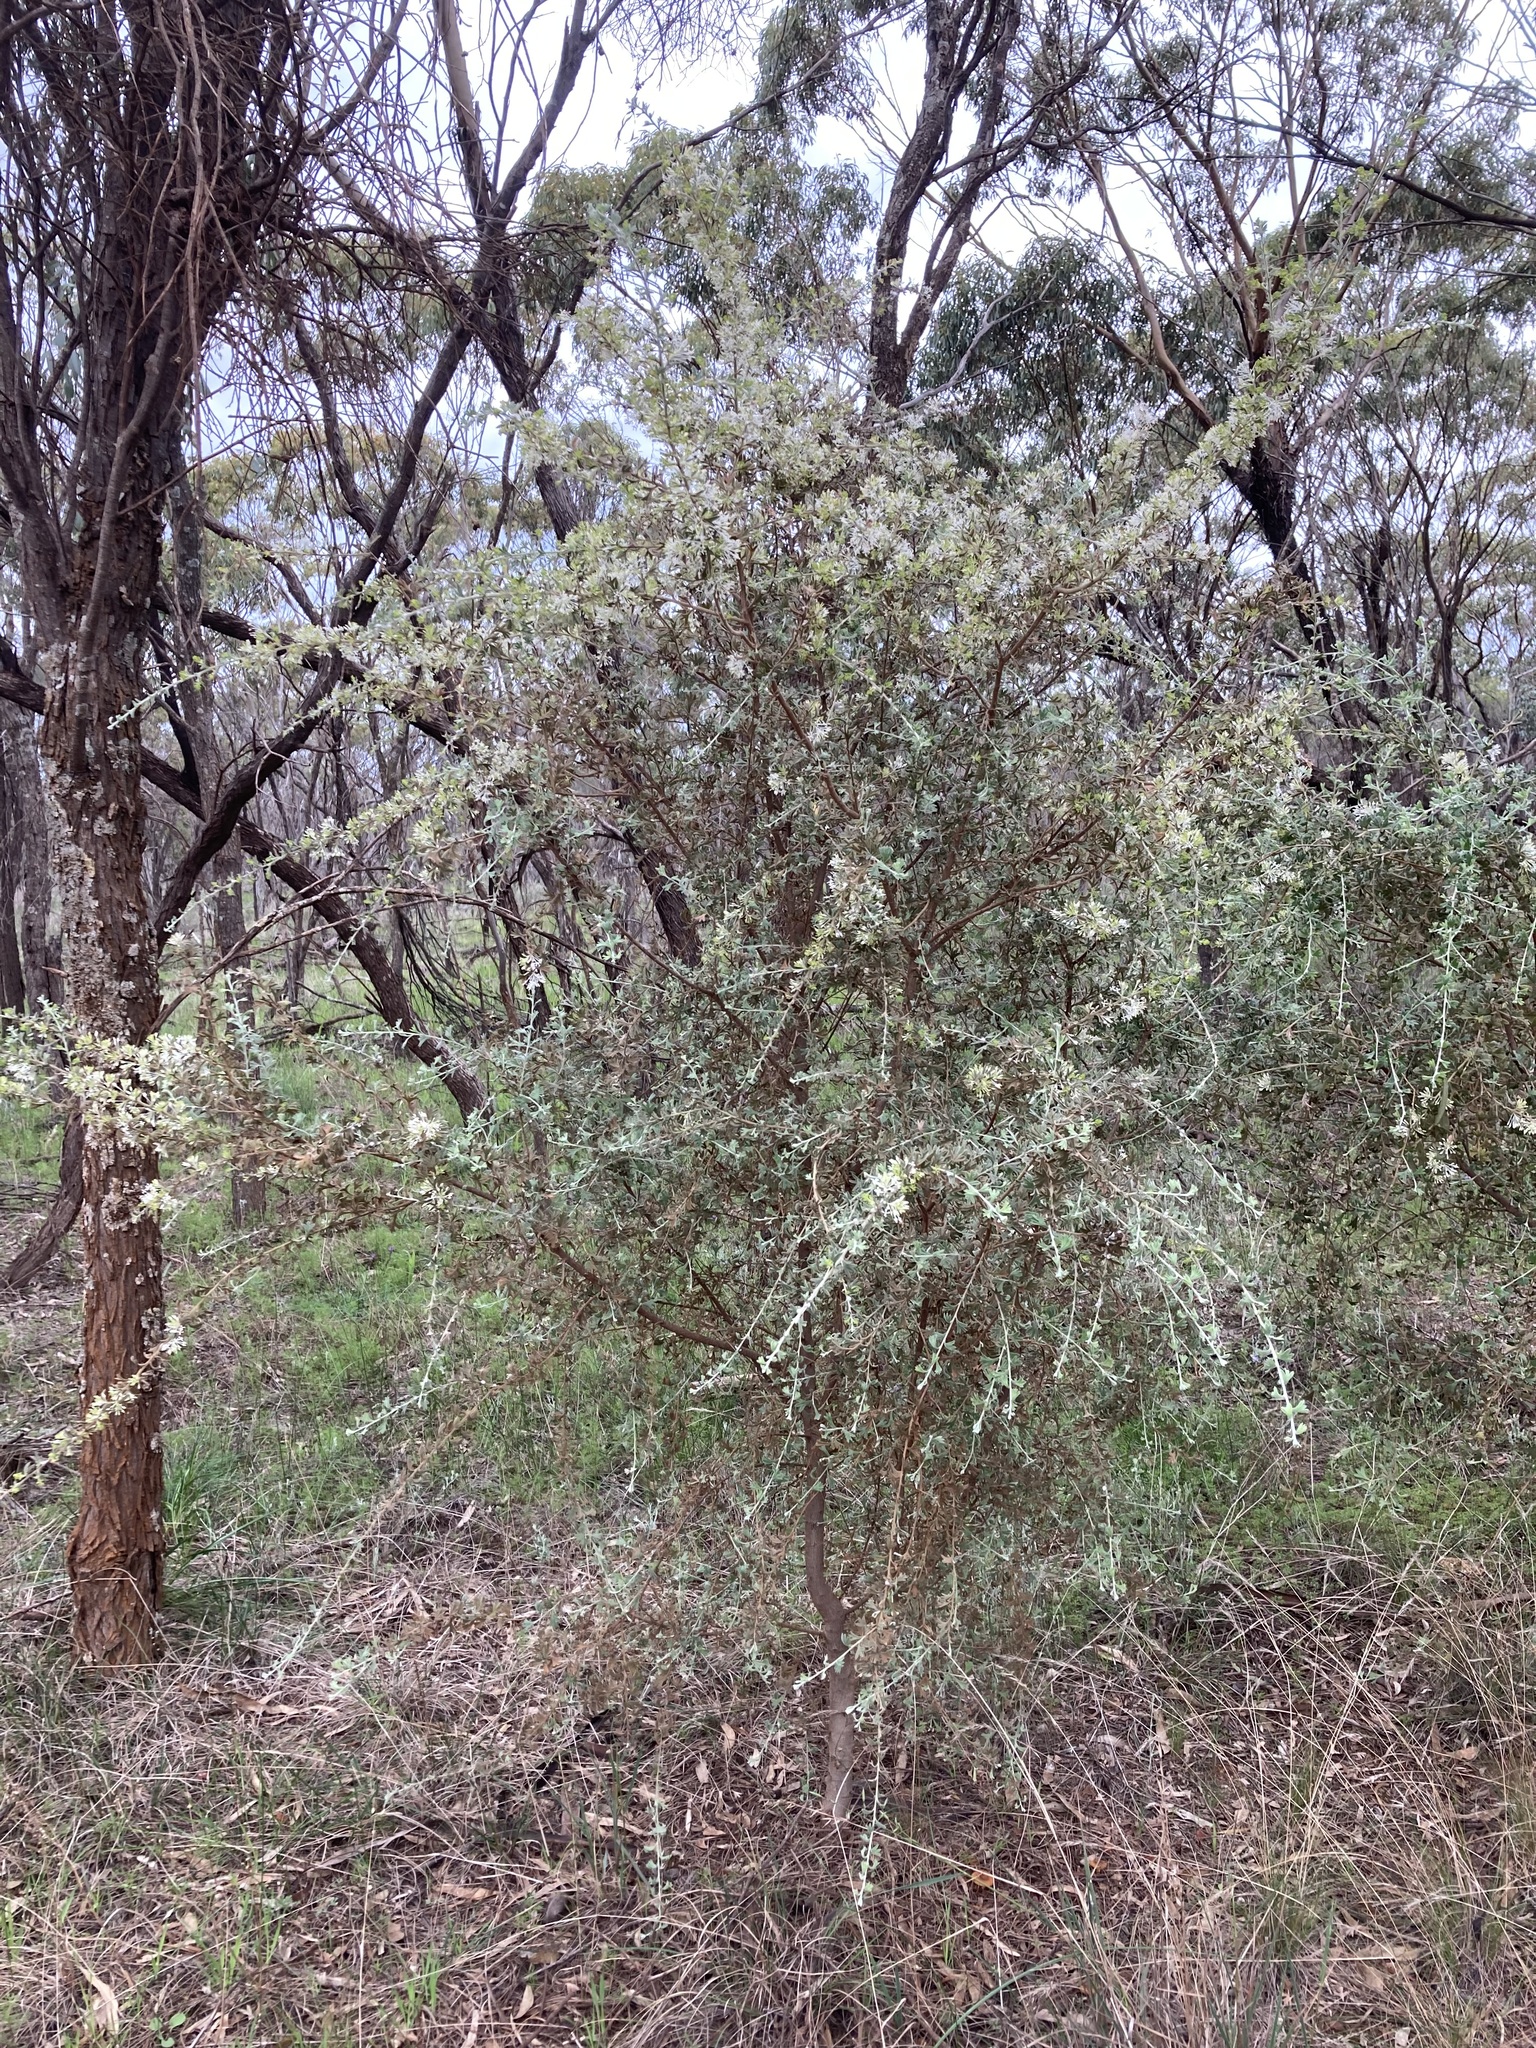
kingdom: Plantae
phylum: Tracheophyta
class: Magnoliopsida
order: Proteales
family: Proteaceae
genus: Grevillea
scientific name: Grevillea vestita
